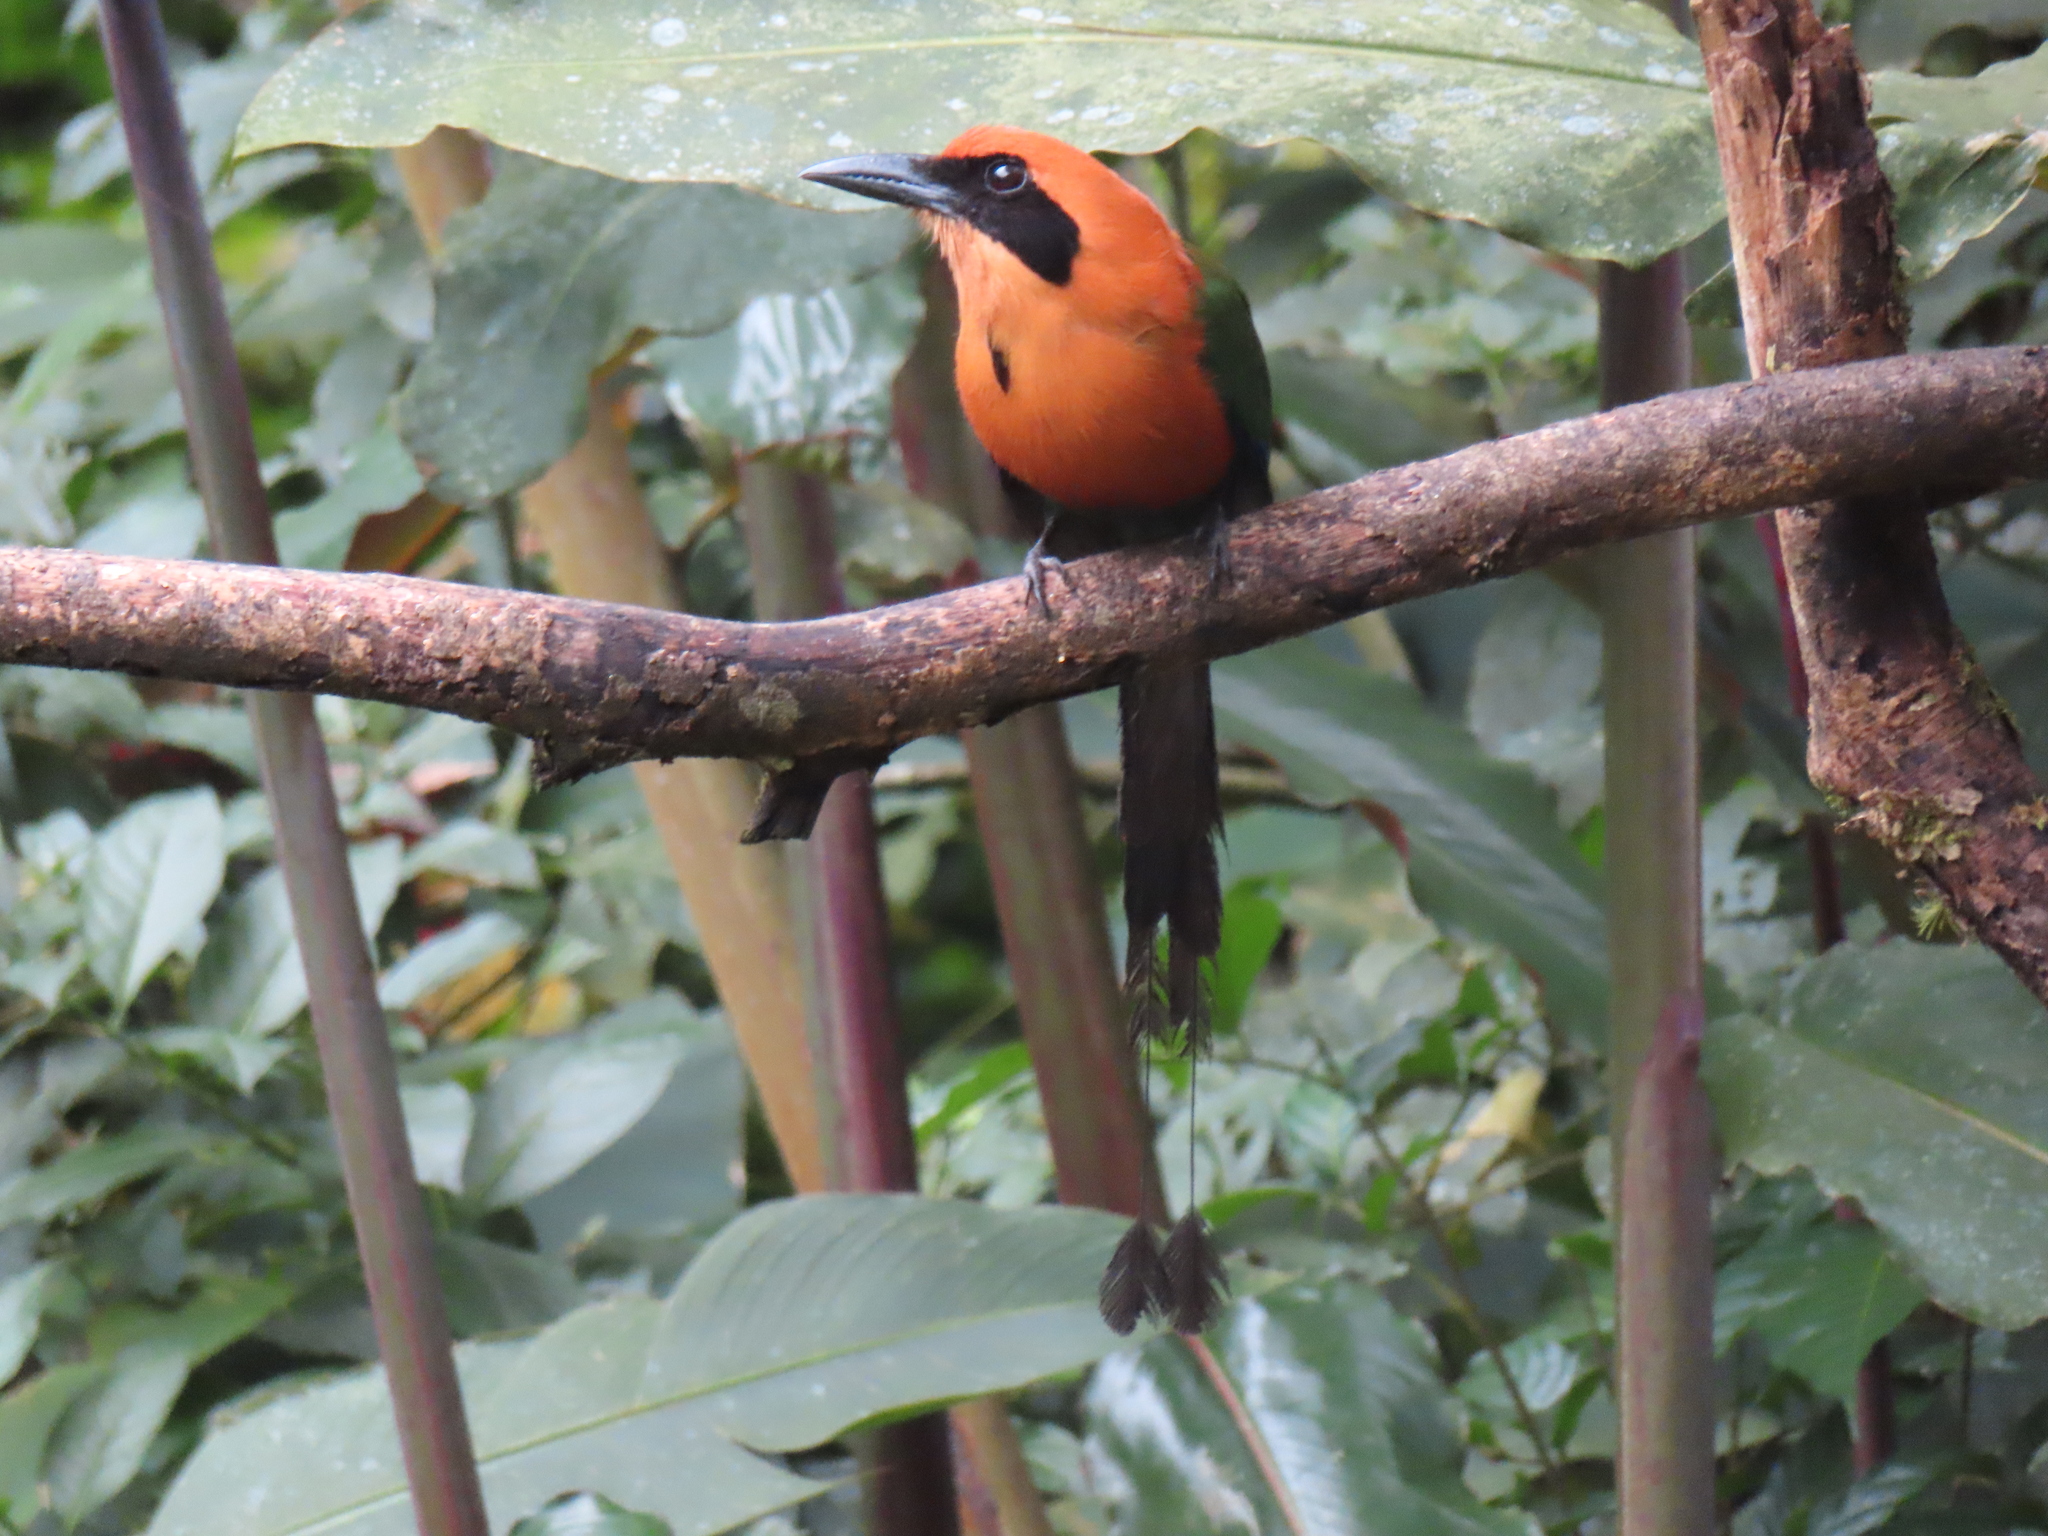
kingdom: Animalia
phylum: Chordata
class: Aves
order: Coraciiformes
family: Momotidae
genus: Baryphthengus
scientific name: Baryphthengus martii
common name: Rufous motmot
